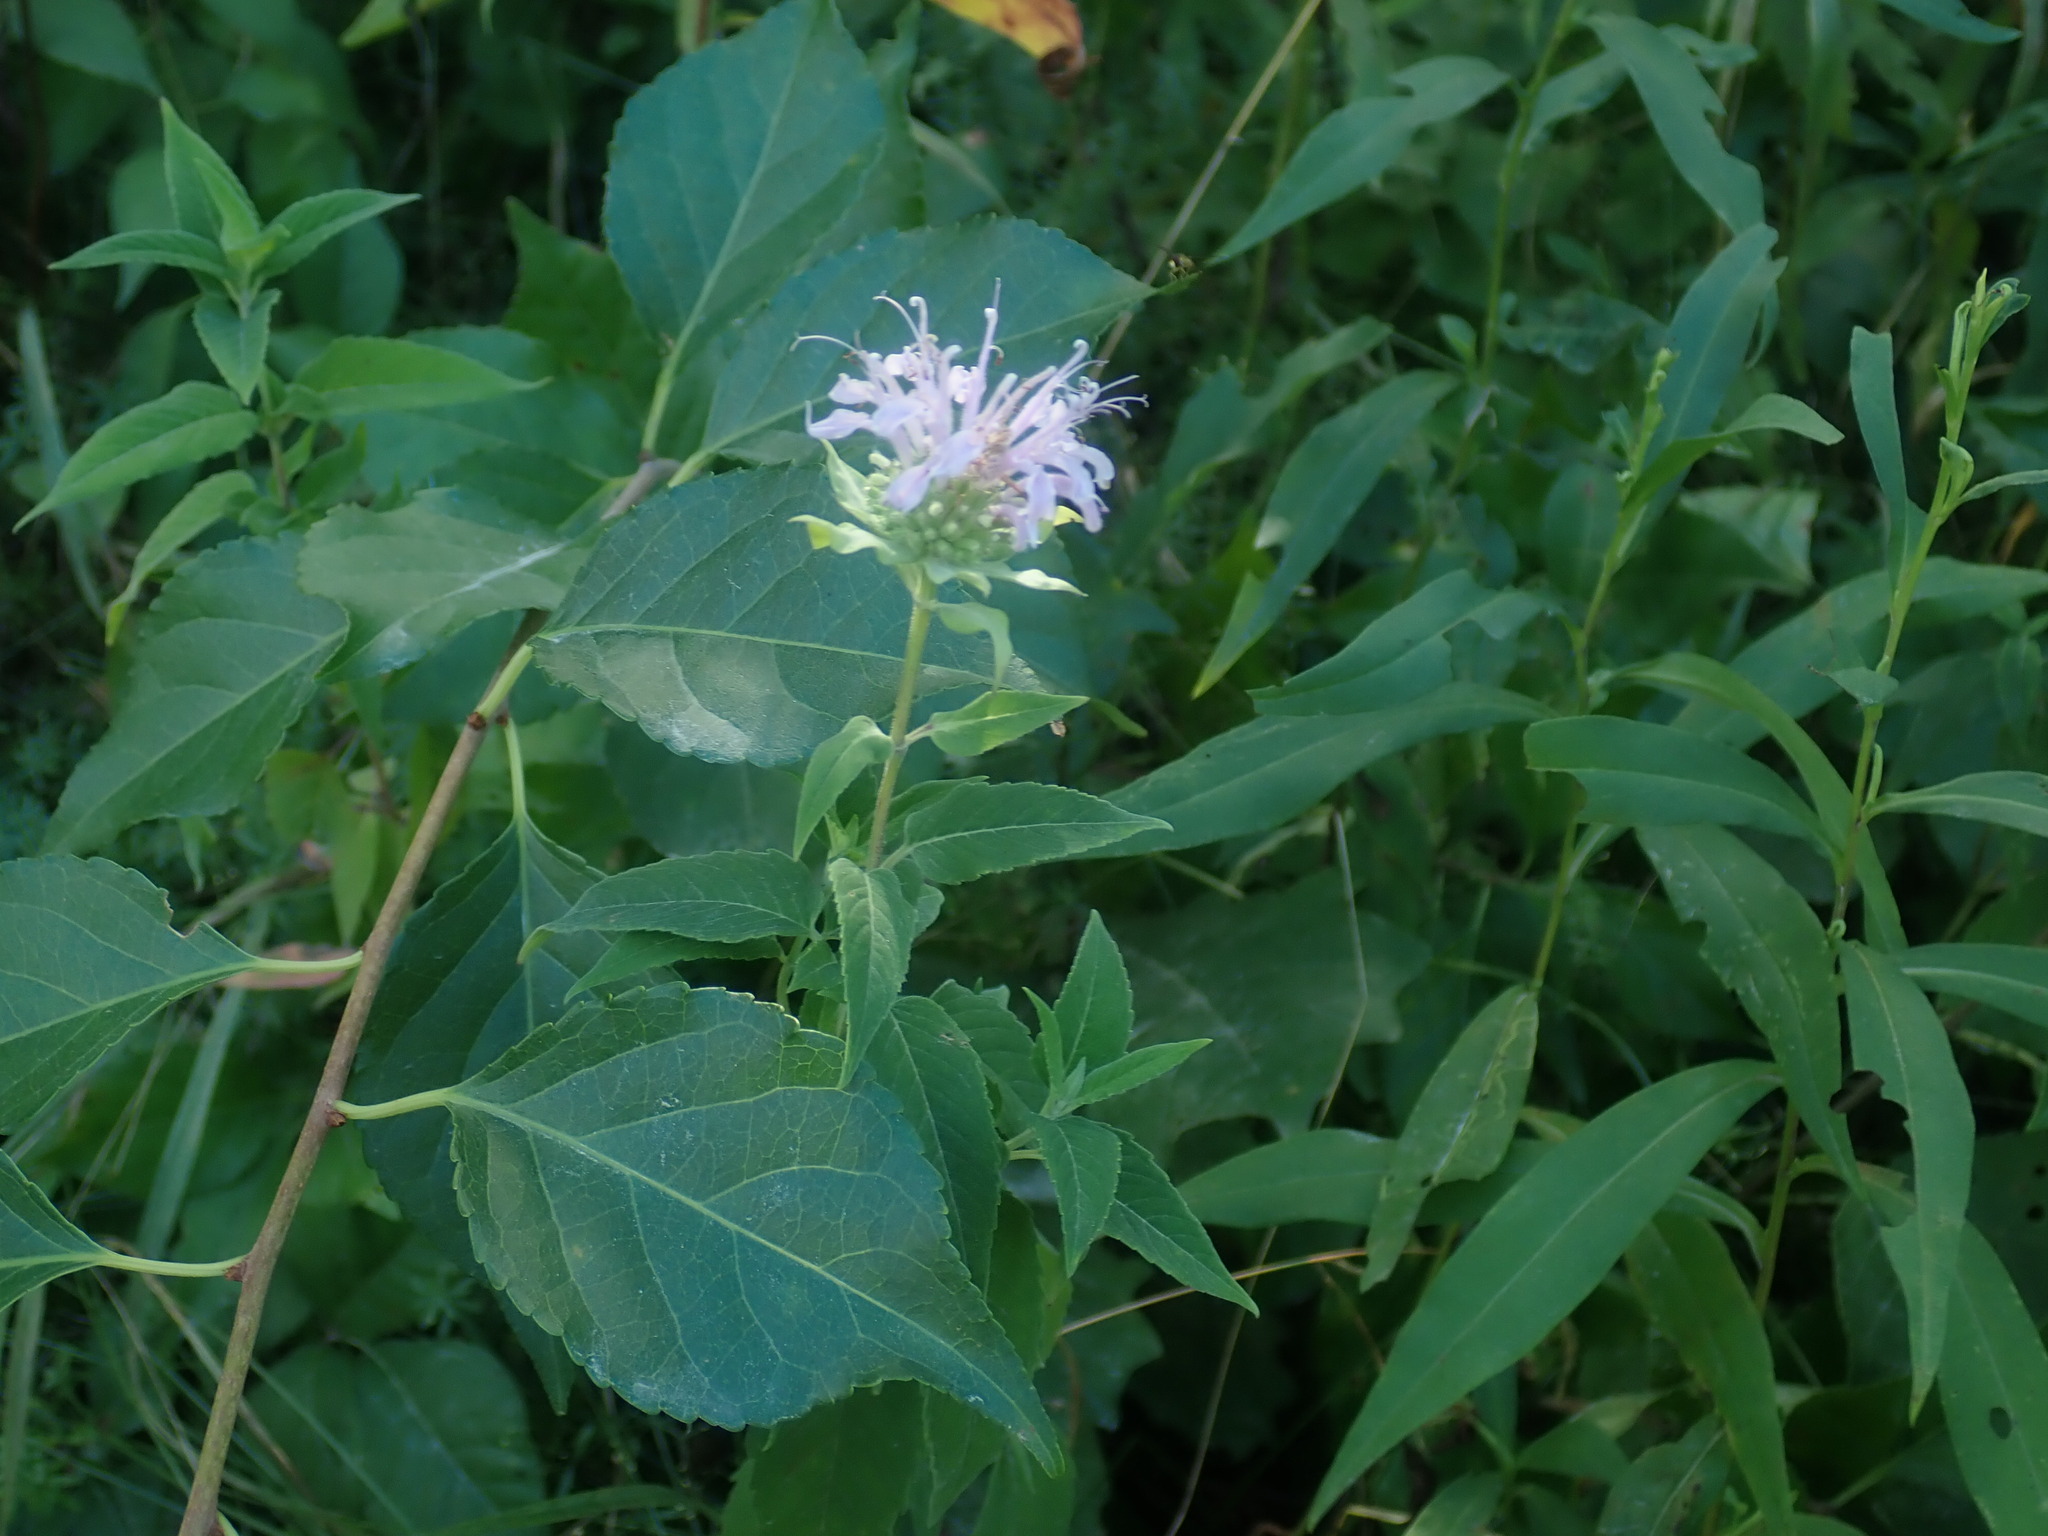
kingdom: Plantae
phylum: Tracheophyta
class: Magnoliopsida
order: Lamiales
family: Lamiaceae
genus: Monarda
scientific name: Monarda fistulosa
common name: Purple beebalm
